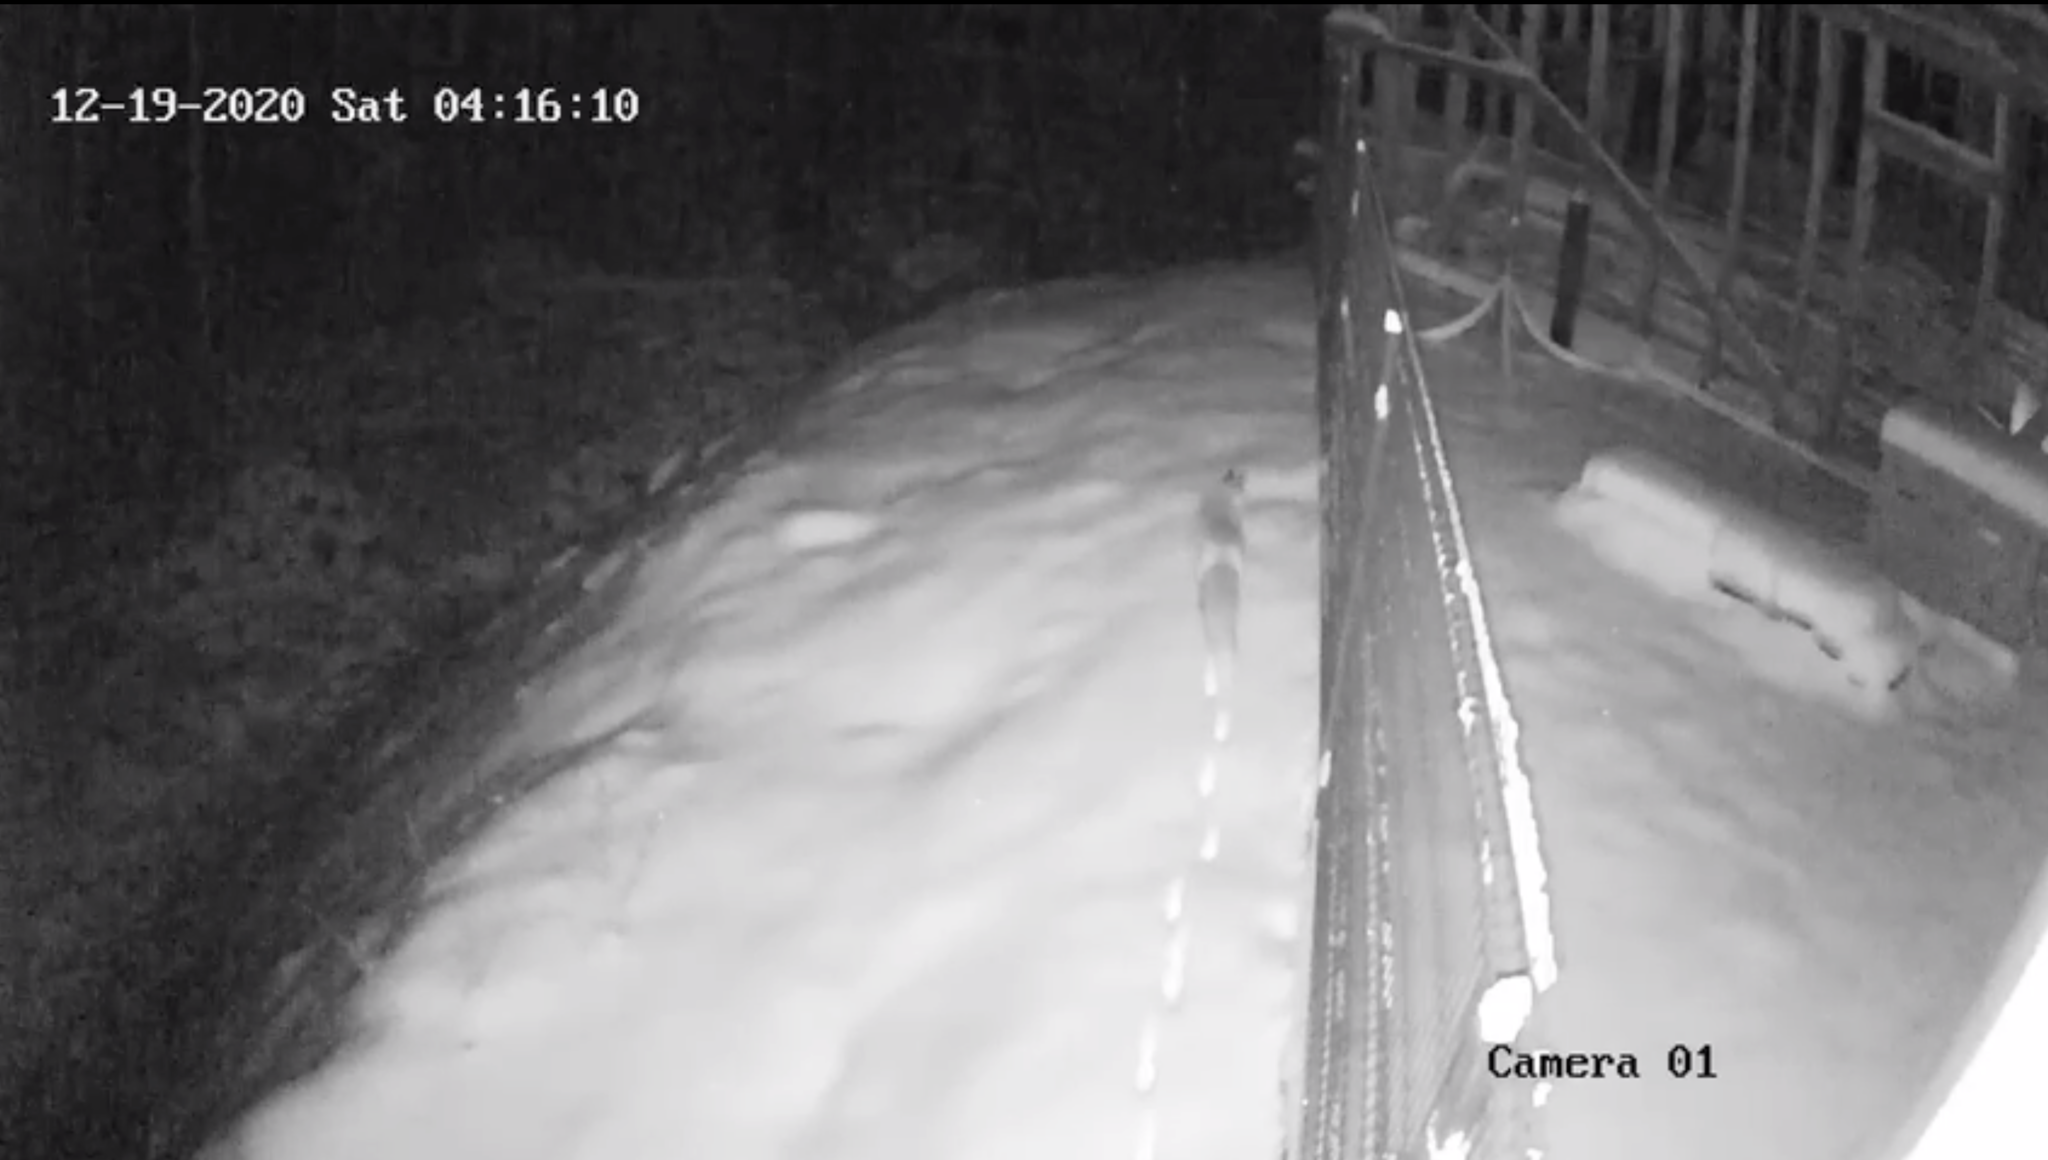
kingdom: Animalia
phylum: Chordata
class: Mammalia
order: Carnivora
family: Canidae
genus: Vulpes
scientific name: Vulpes vulpes
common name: Red fox
